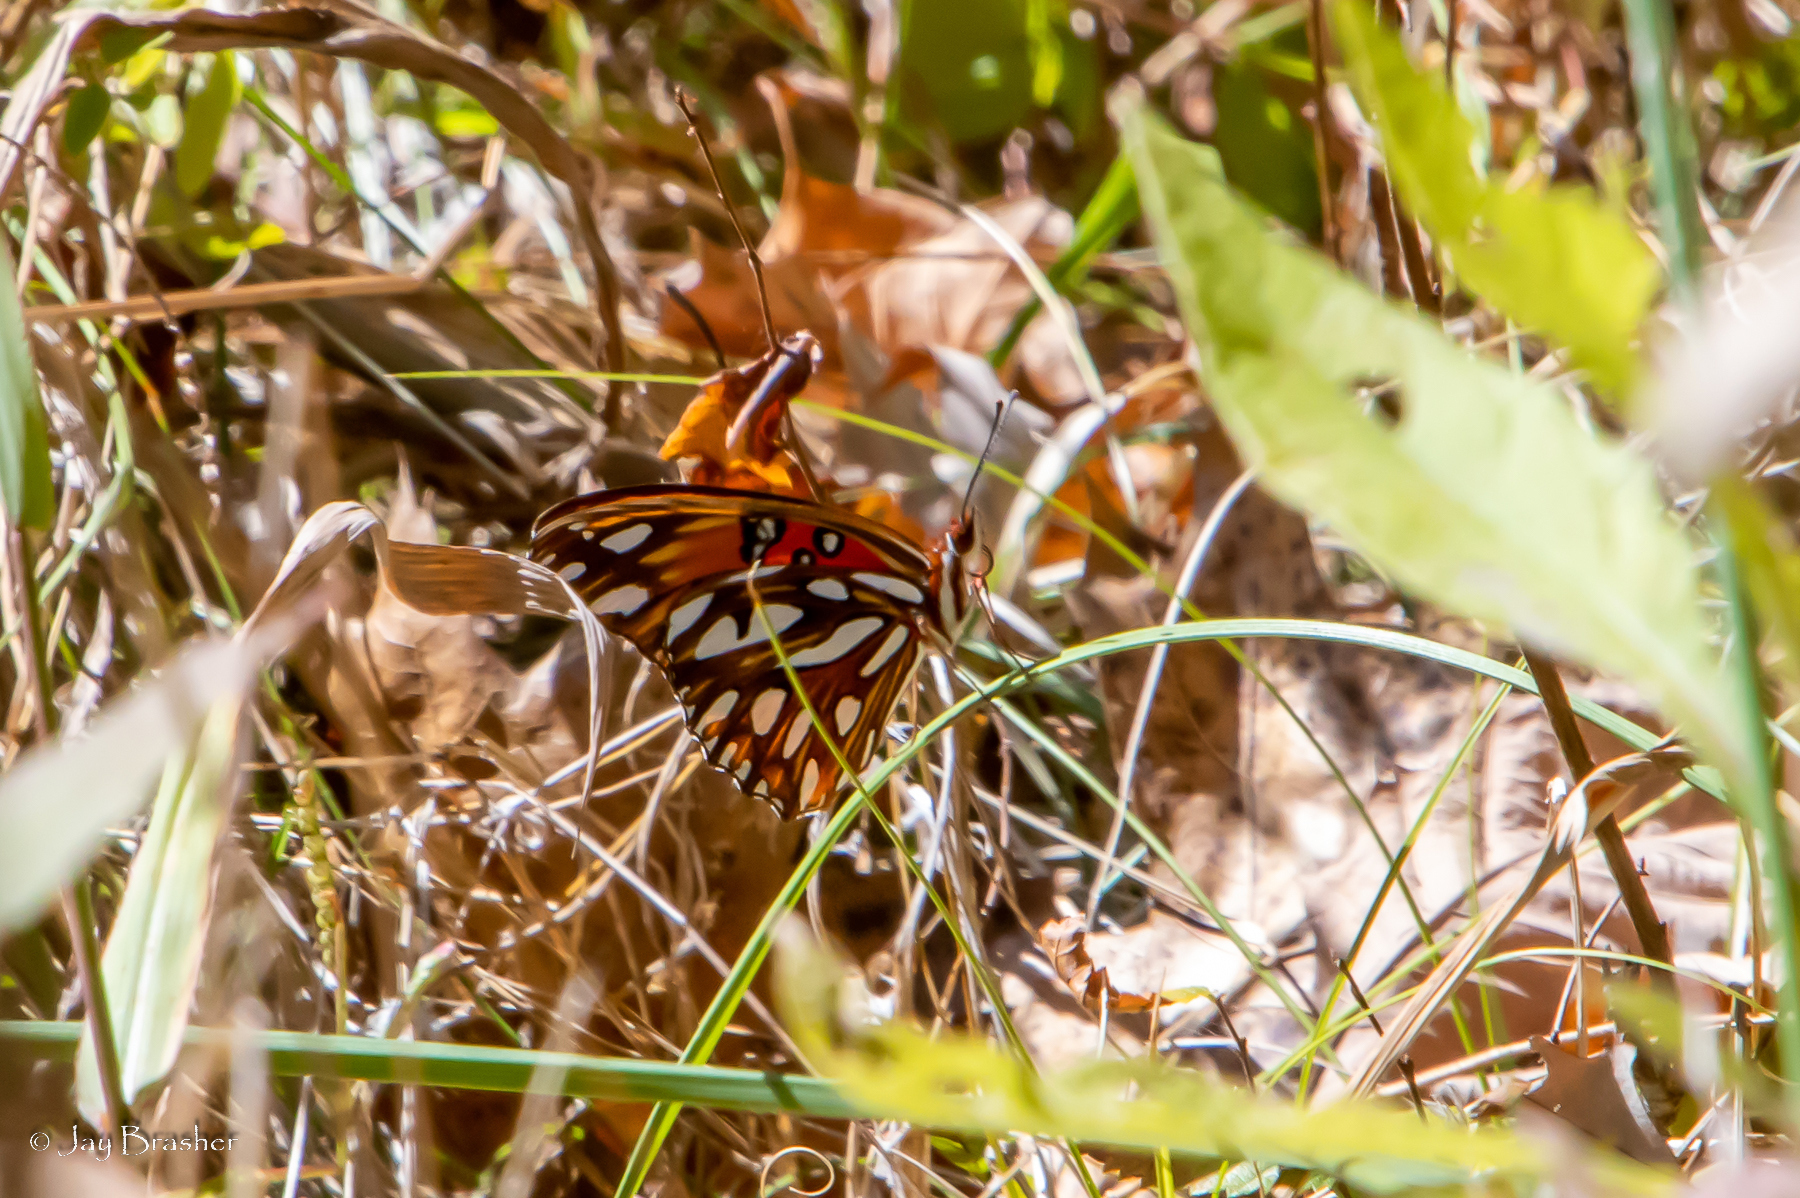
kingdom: Animalia
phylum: Arthropoda
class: Insecta
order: Lepidoptera
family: Nymphalidae
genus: Dione
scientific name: Dione vanillae
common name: Gulf fritillary
